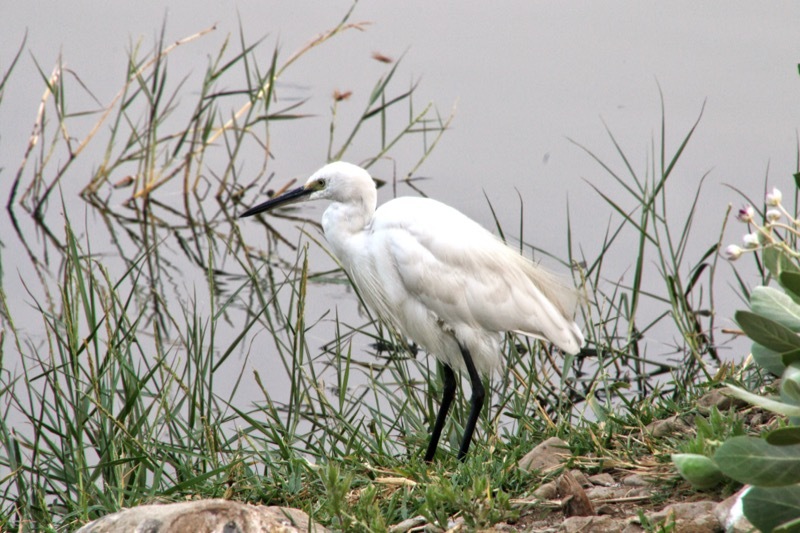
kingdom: Animalia
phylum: Chordata
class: Aves
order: Pelecaniformes
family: Ardeidae
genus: Egretta
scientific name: Egretta garzetta
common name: Little egret
